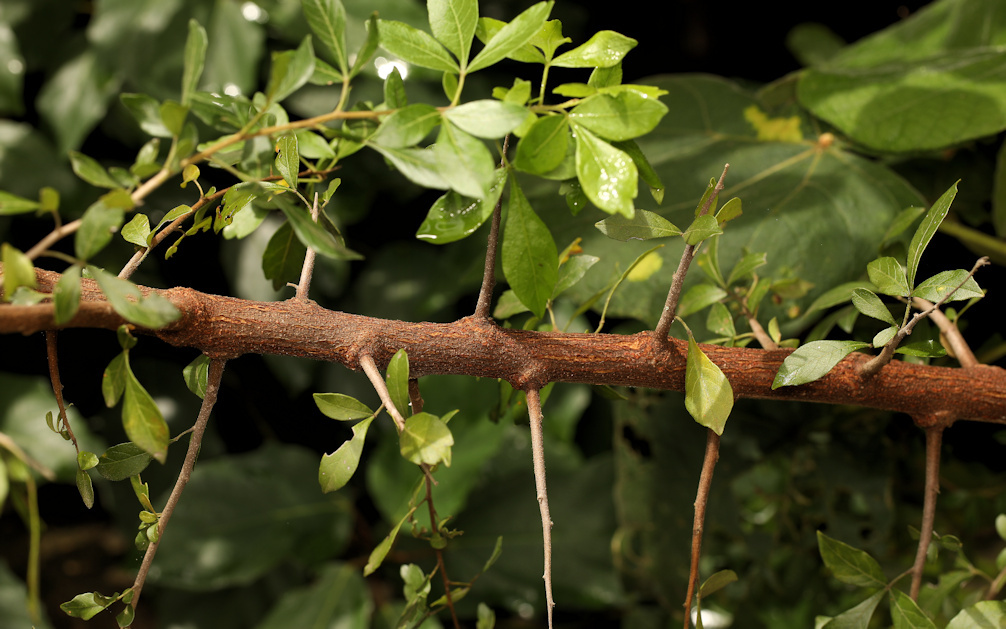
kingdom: Plantae
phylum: Tracheophyta
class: Magnoliopsida
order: Sapindales
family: Anacardiaceae
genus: Searsia
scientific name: Searsia pentheri
